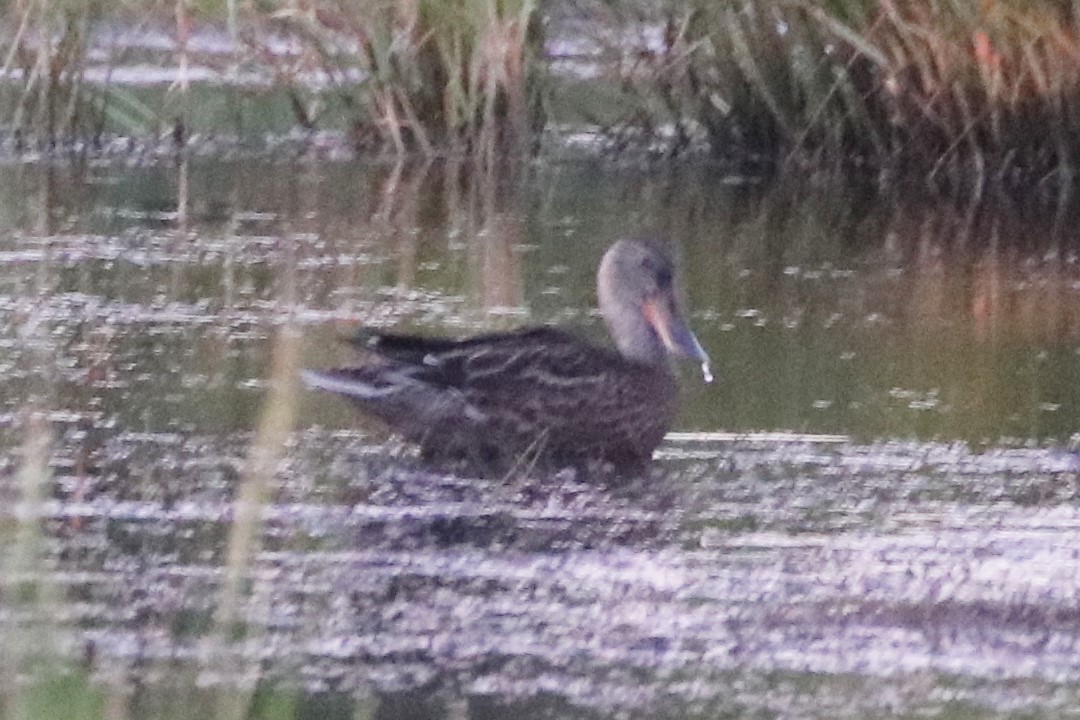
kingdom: Animalia
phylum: Chordata
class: Aves
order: Anseriformes
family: Anatidae
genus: Spatula
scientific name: Spatula clypeata
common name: Northern shoveler
